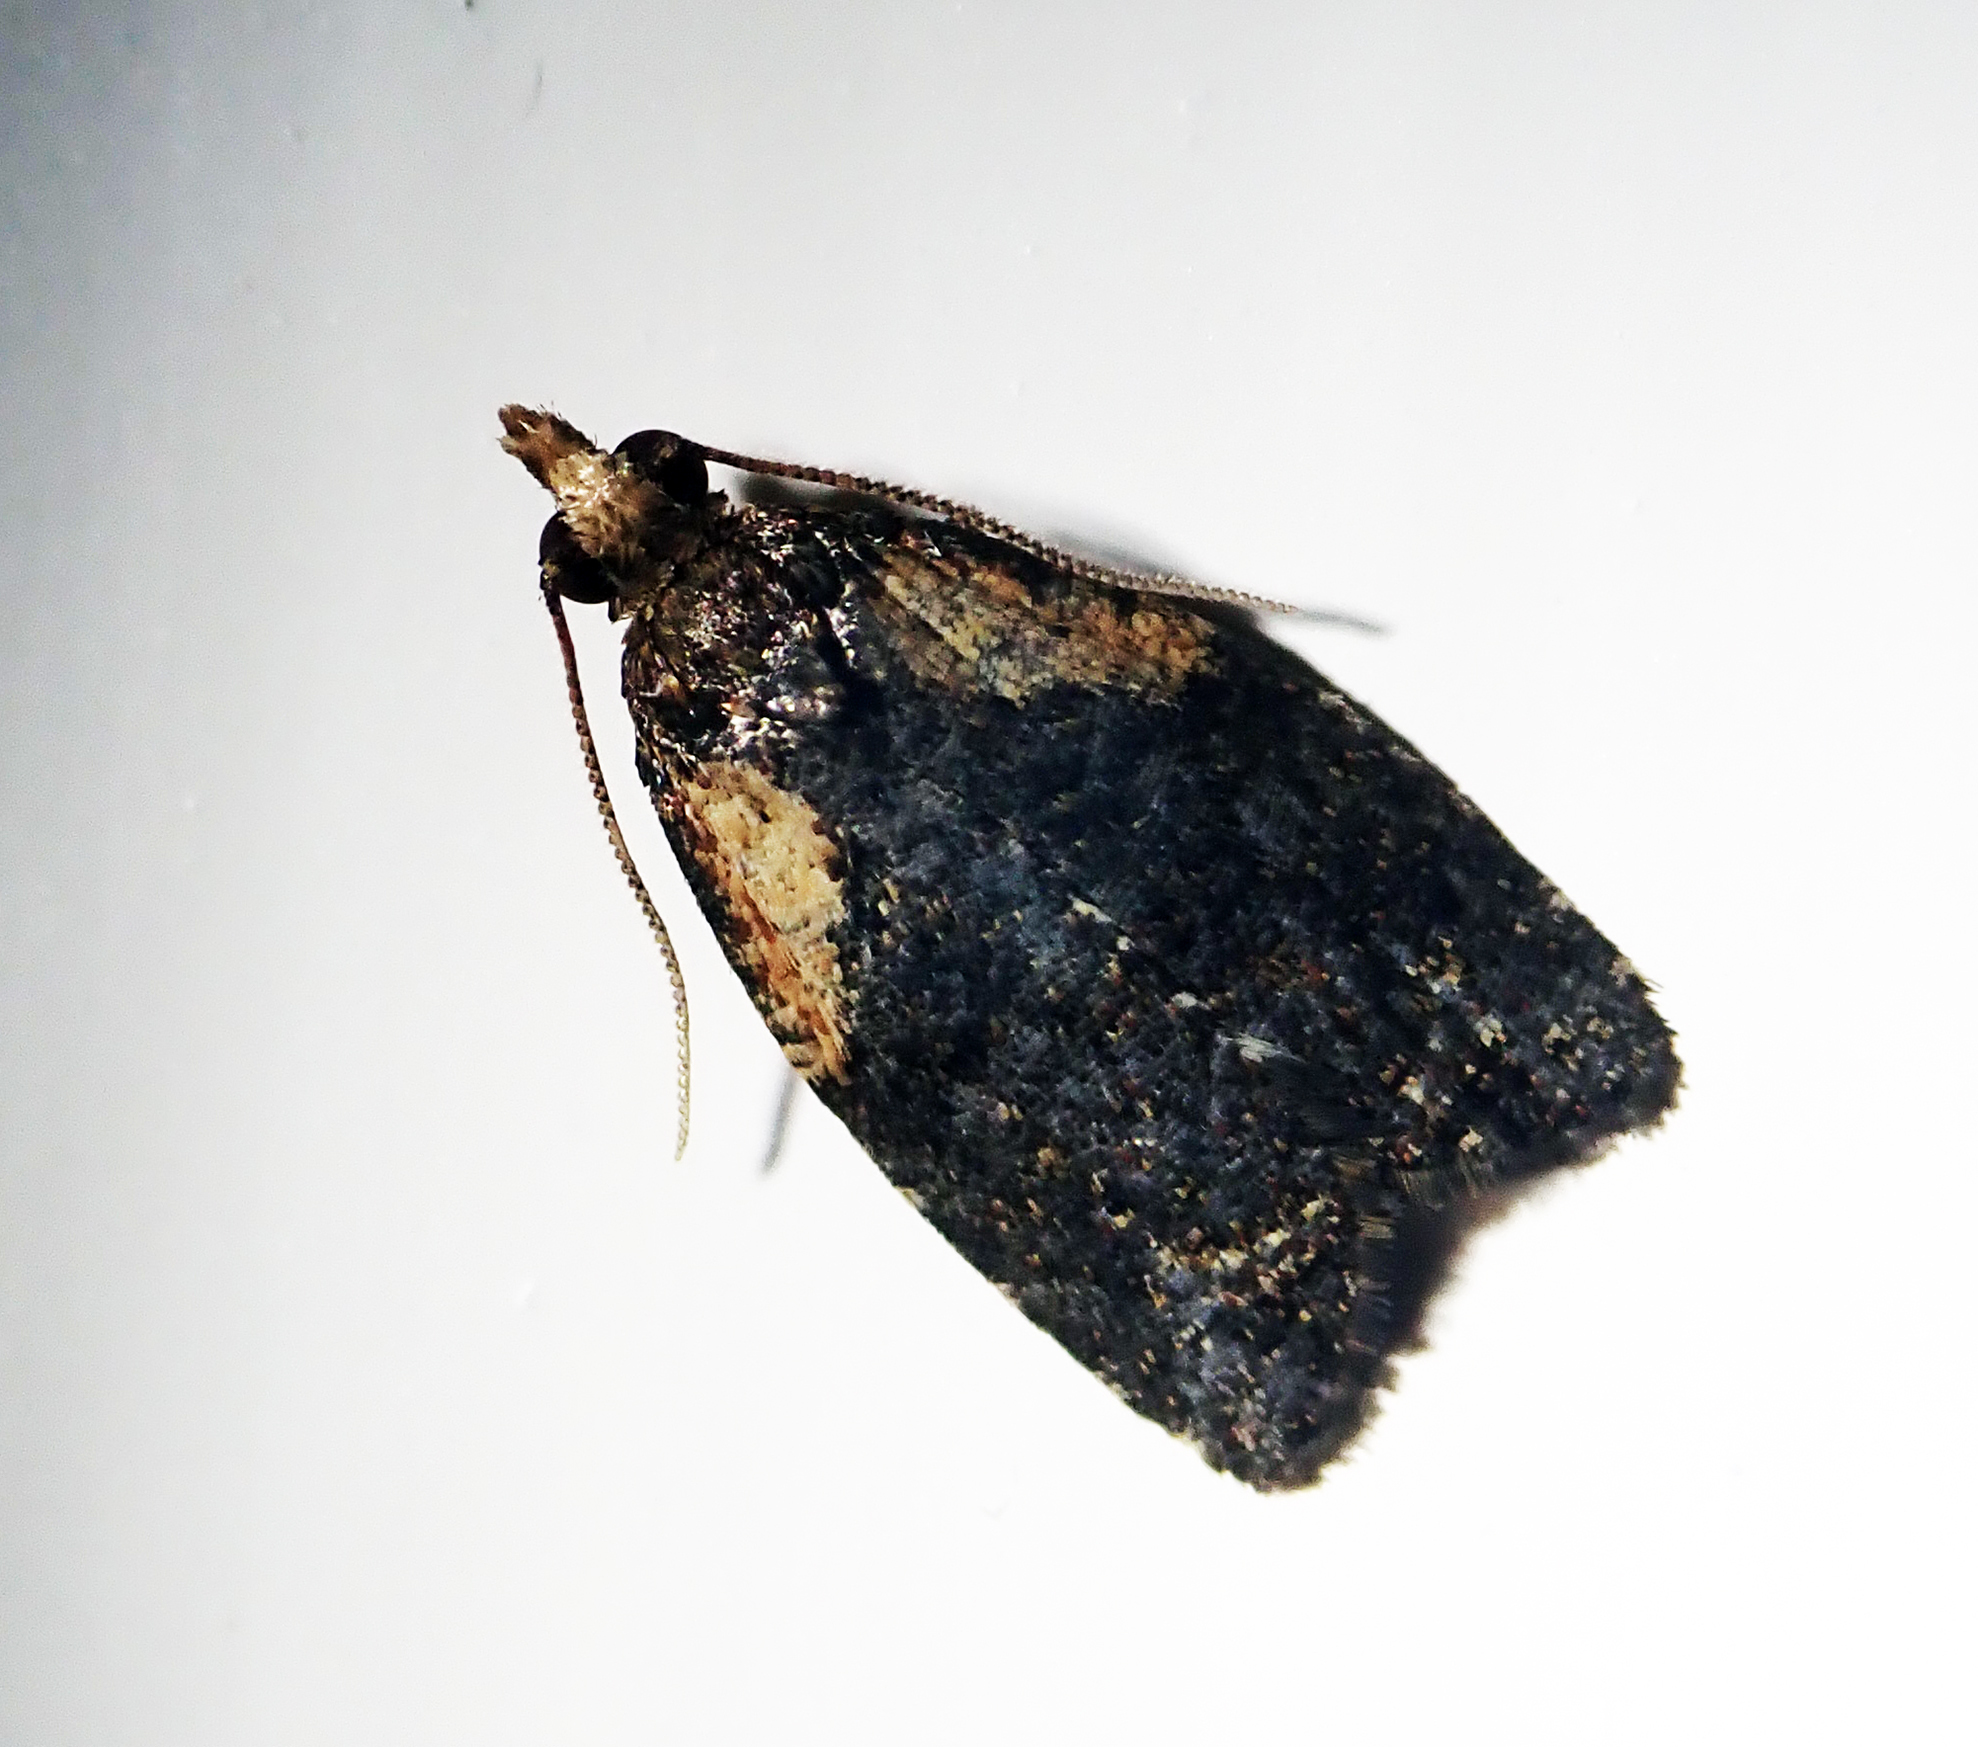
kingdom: Animalia
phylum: Arthropoda
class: Insecta
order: Lepidoptera
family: Tortricidae
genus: Capua
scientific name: Capua intractana
